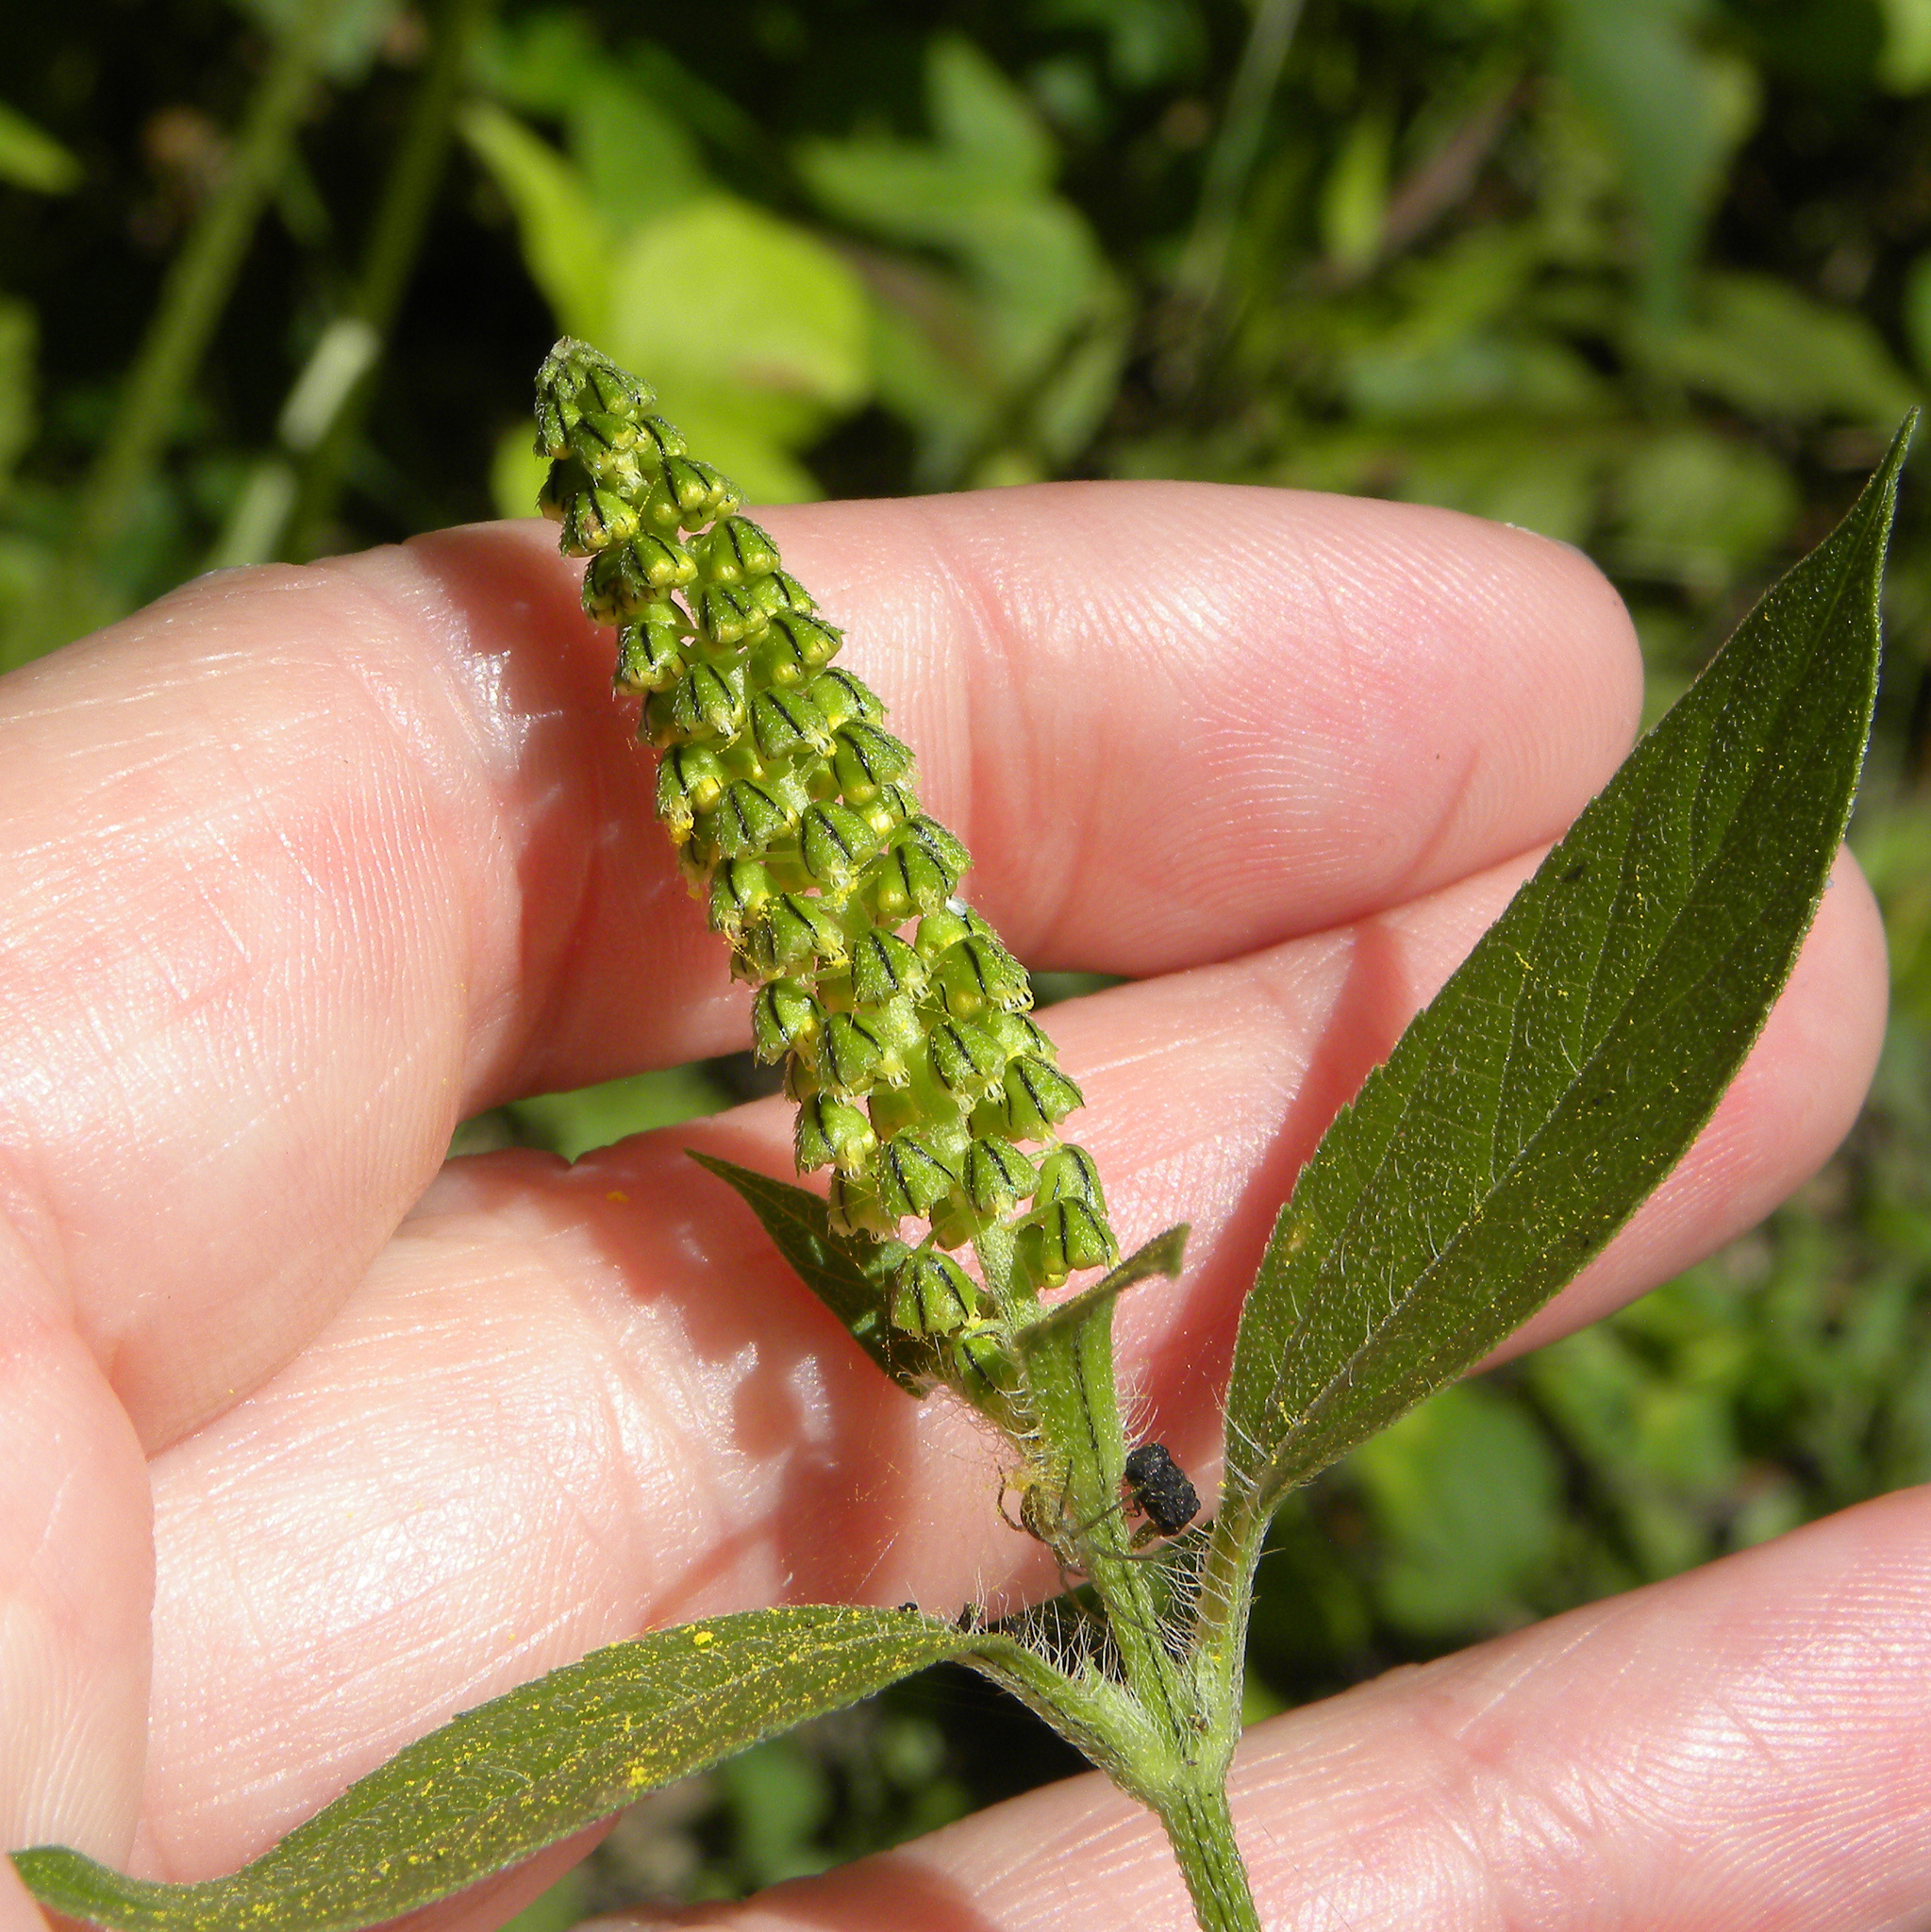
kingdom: Plantae
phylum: Tracheophyta
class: Magnoliopsida
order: Asterales
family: Asteraceae
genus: Ambrosia
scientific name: Ambrosia trifida
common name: Giant ragweed
